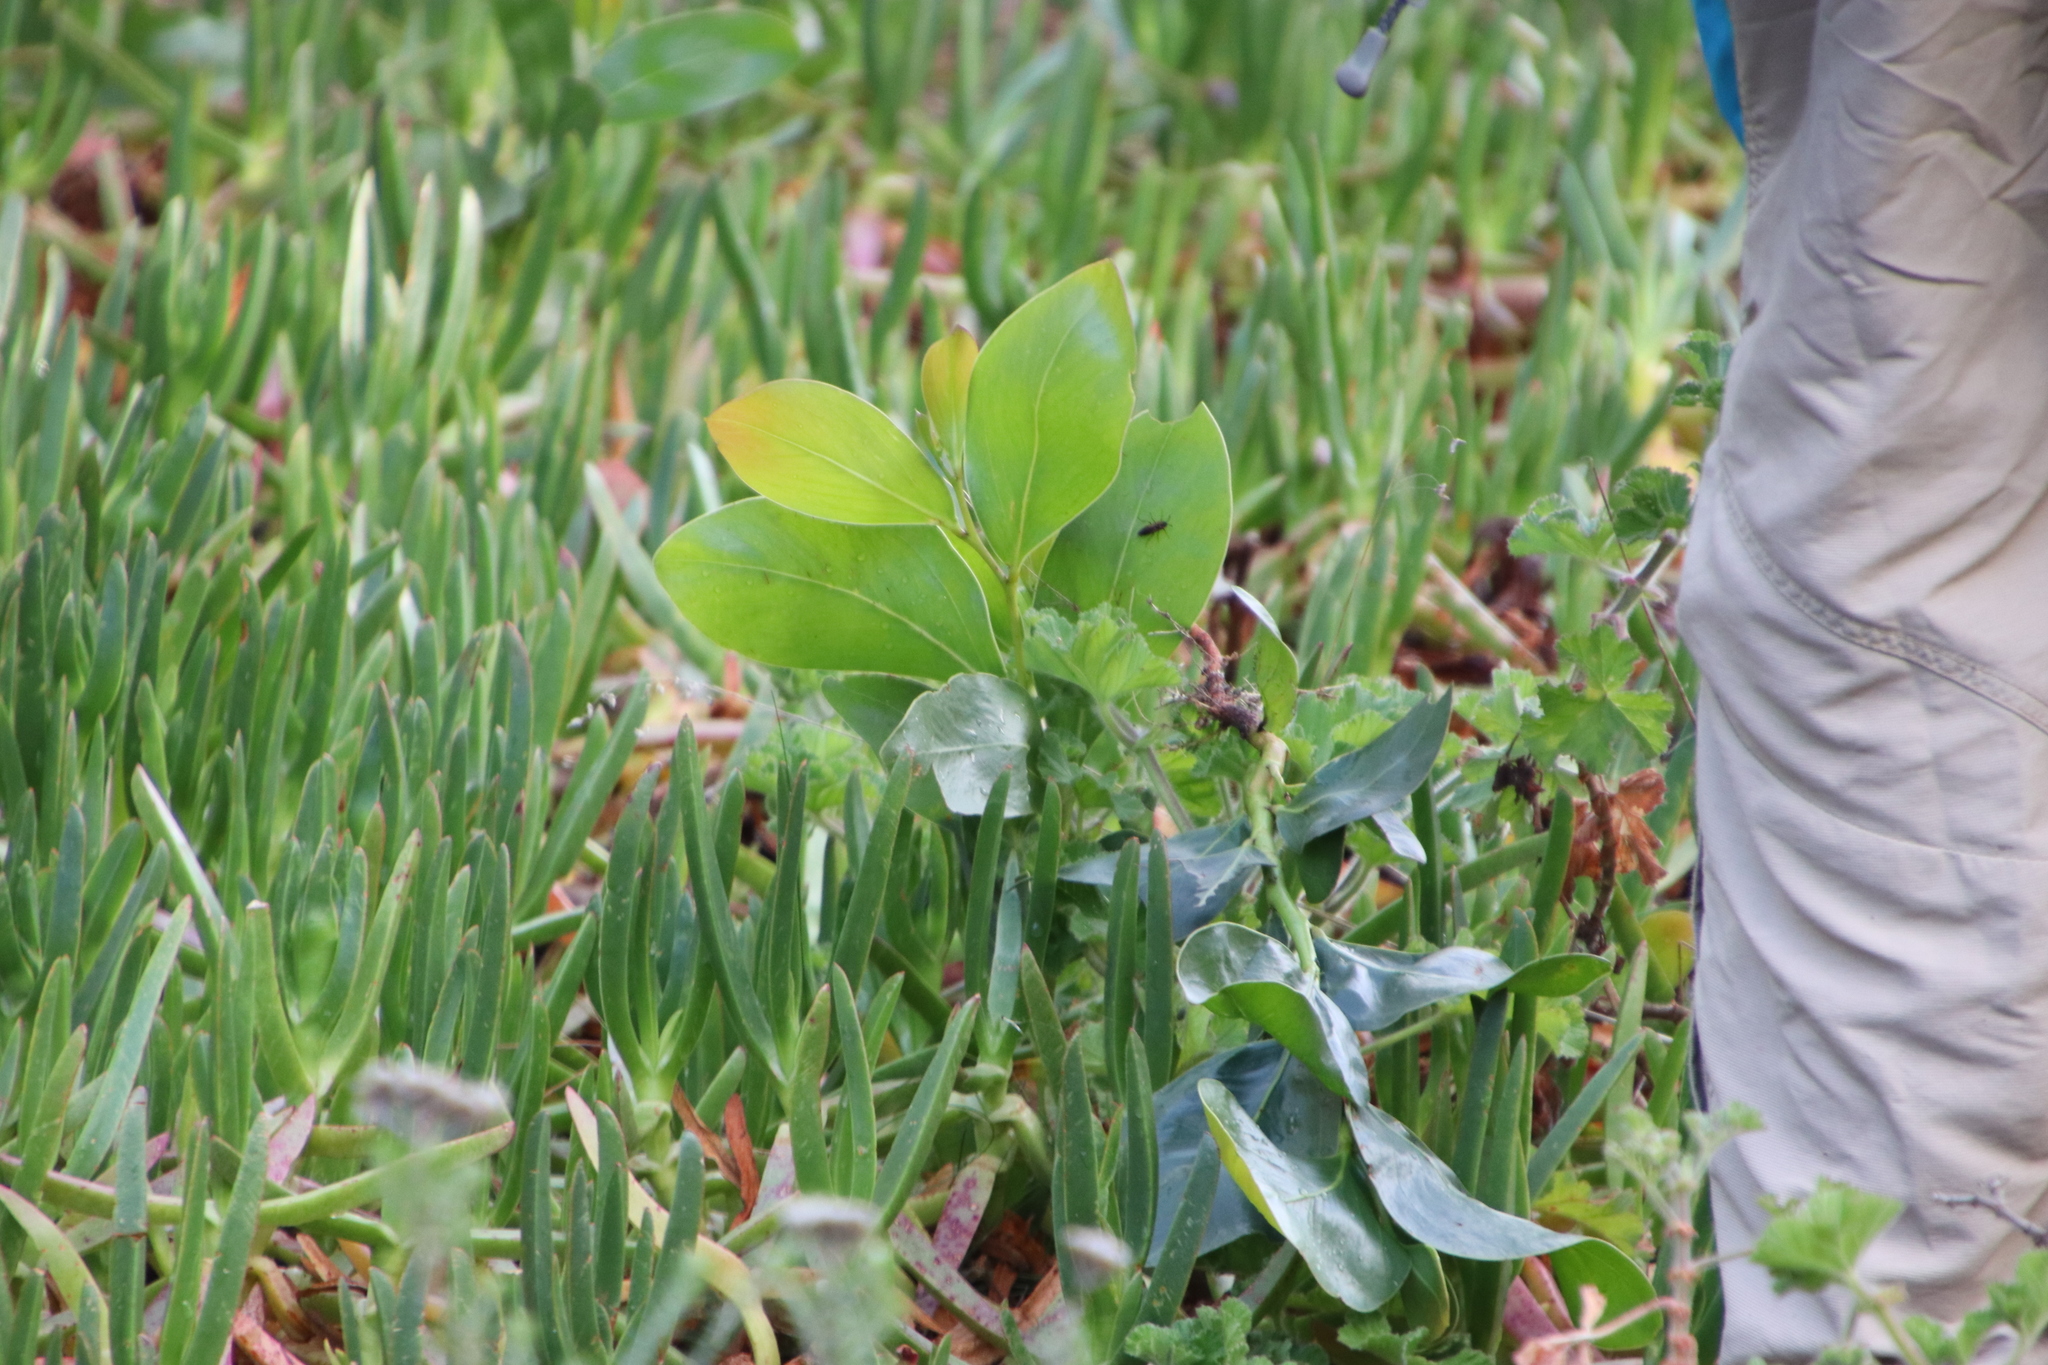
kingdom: Plantae
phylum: Tracheophyta
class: Magnoliopsida
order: Fabales
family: Fabaceae
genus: Acacia
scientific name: Acacia pycnantha
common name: Golden wattle
